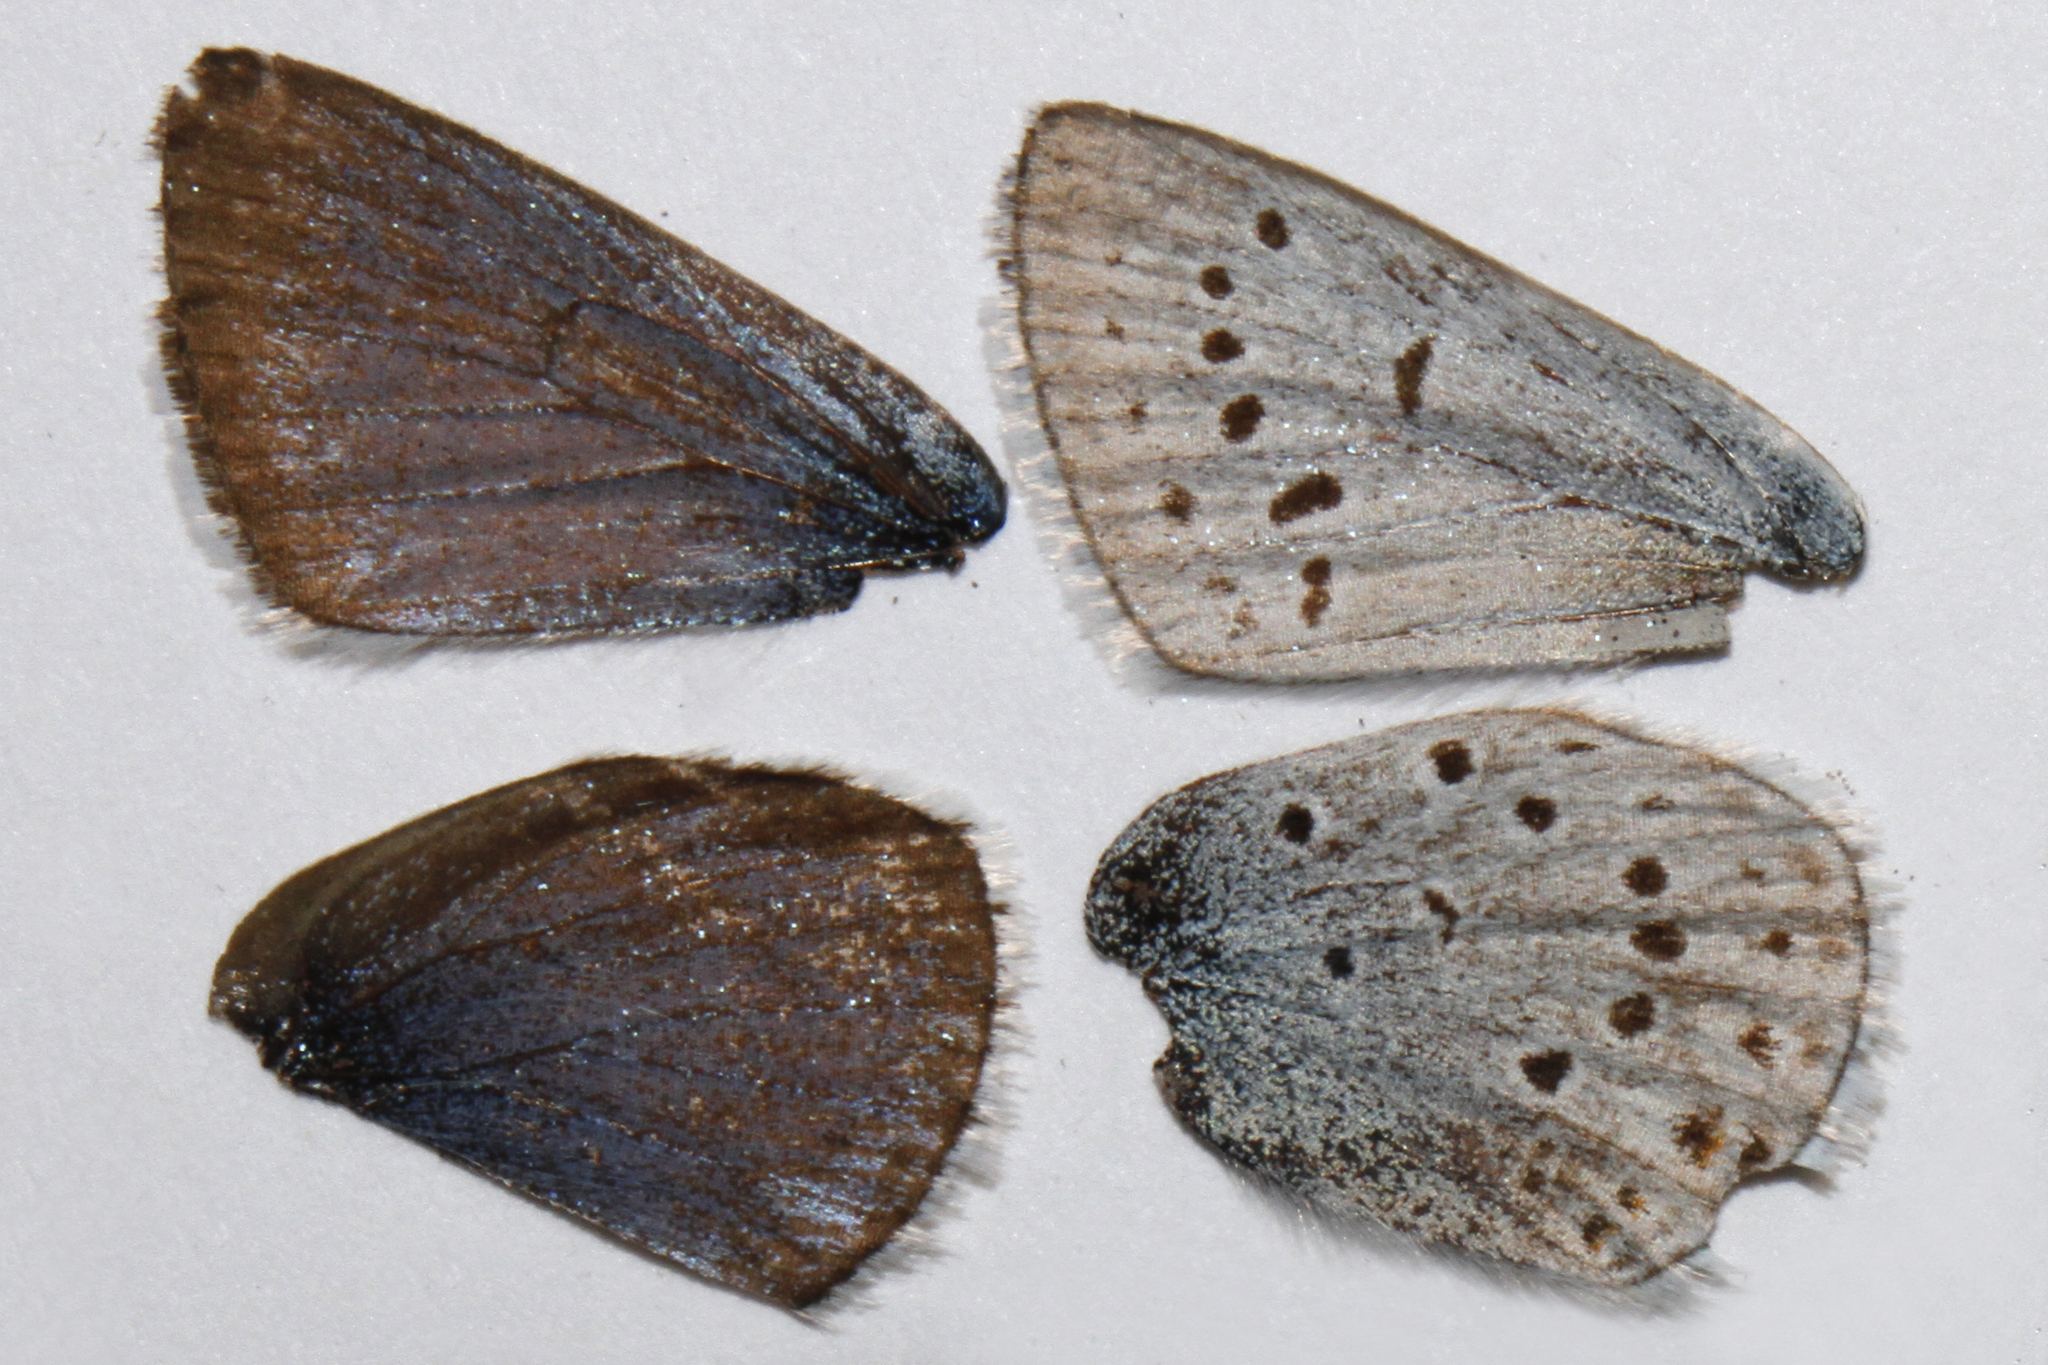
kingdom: Animalia
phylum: Arthropoda
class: Insecta
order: Lepidoptera
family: Lycaenidae
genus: Icaricia
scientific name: Icaricia saepiolus
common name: Greenish blue
